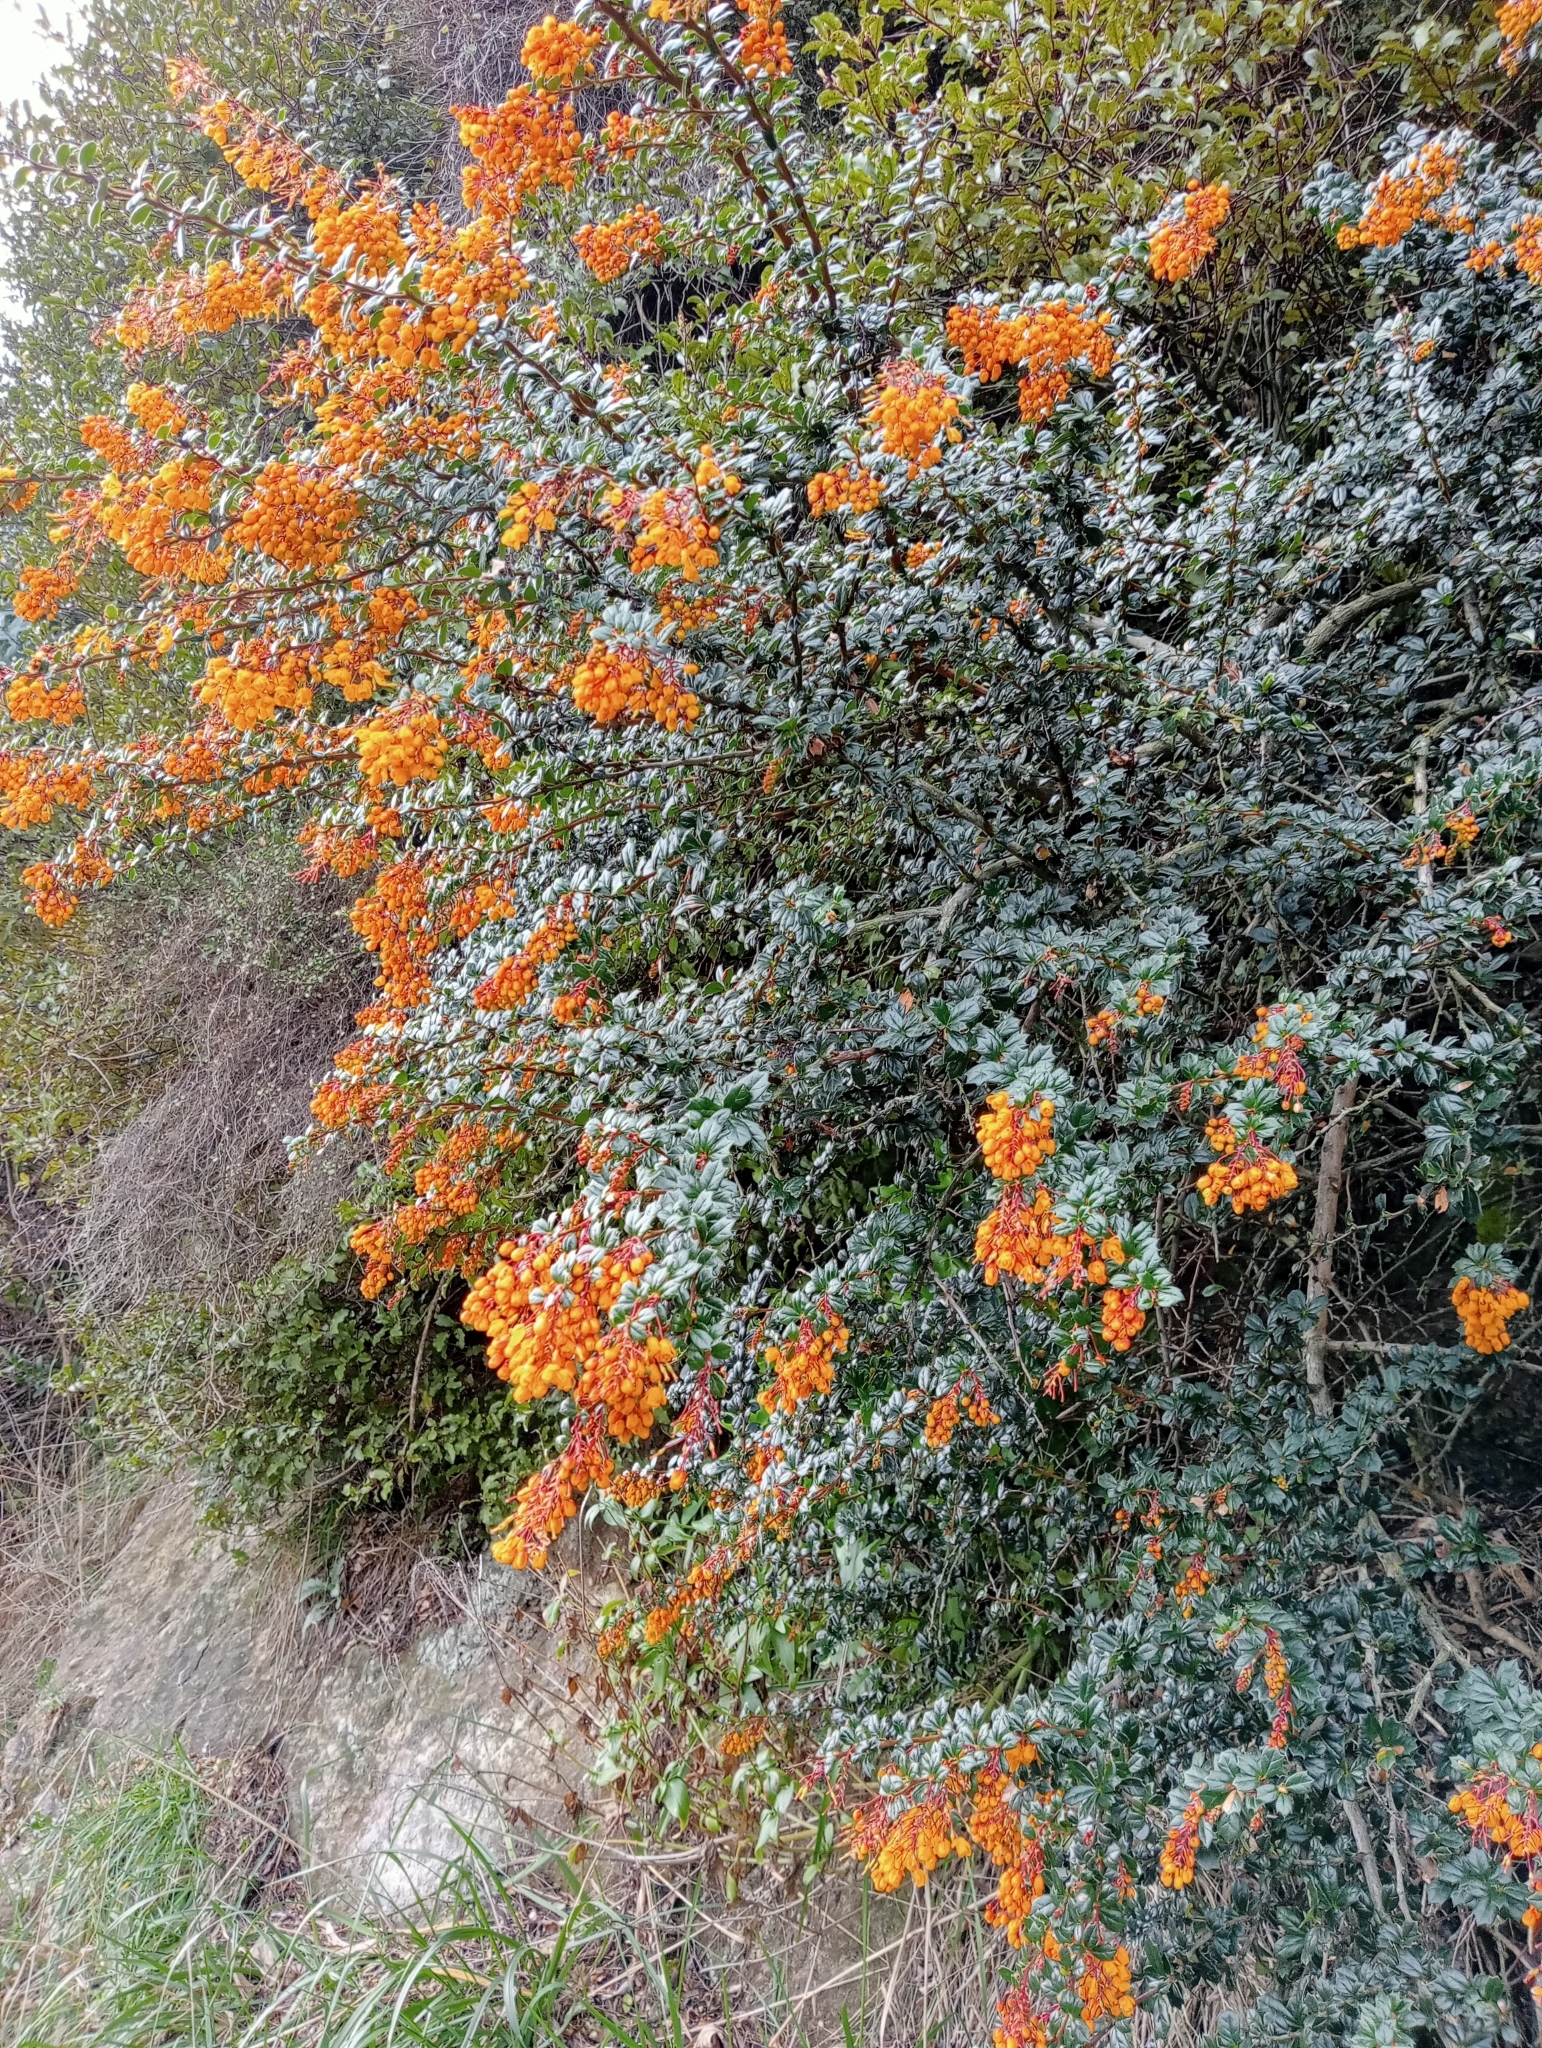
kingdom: Plantae
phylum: Tracheophyta
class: Magnoliopsida
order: Ranunculales
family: Berberidaceae
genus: Berberis
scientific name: Berberis darwinii
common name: Darwin's barberry
